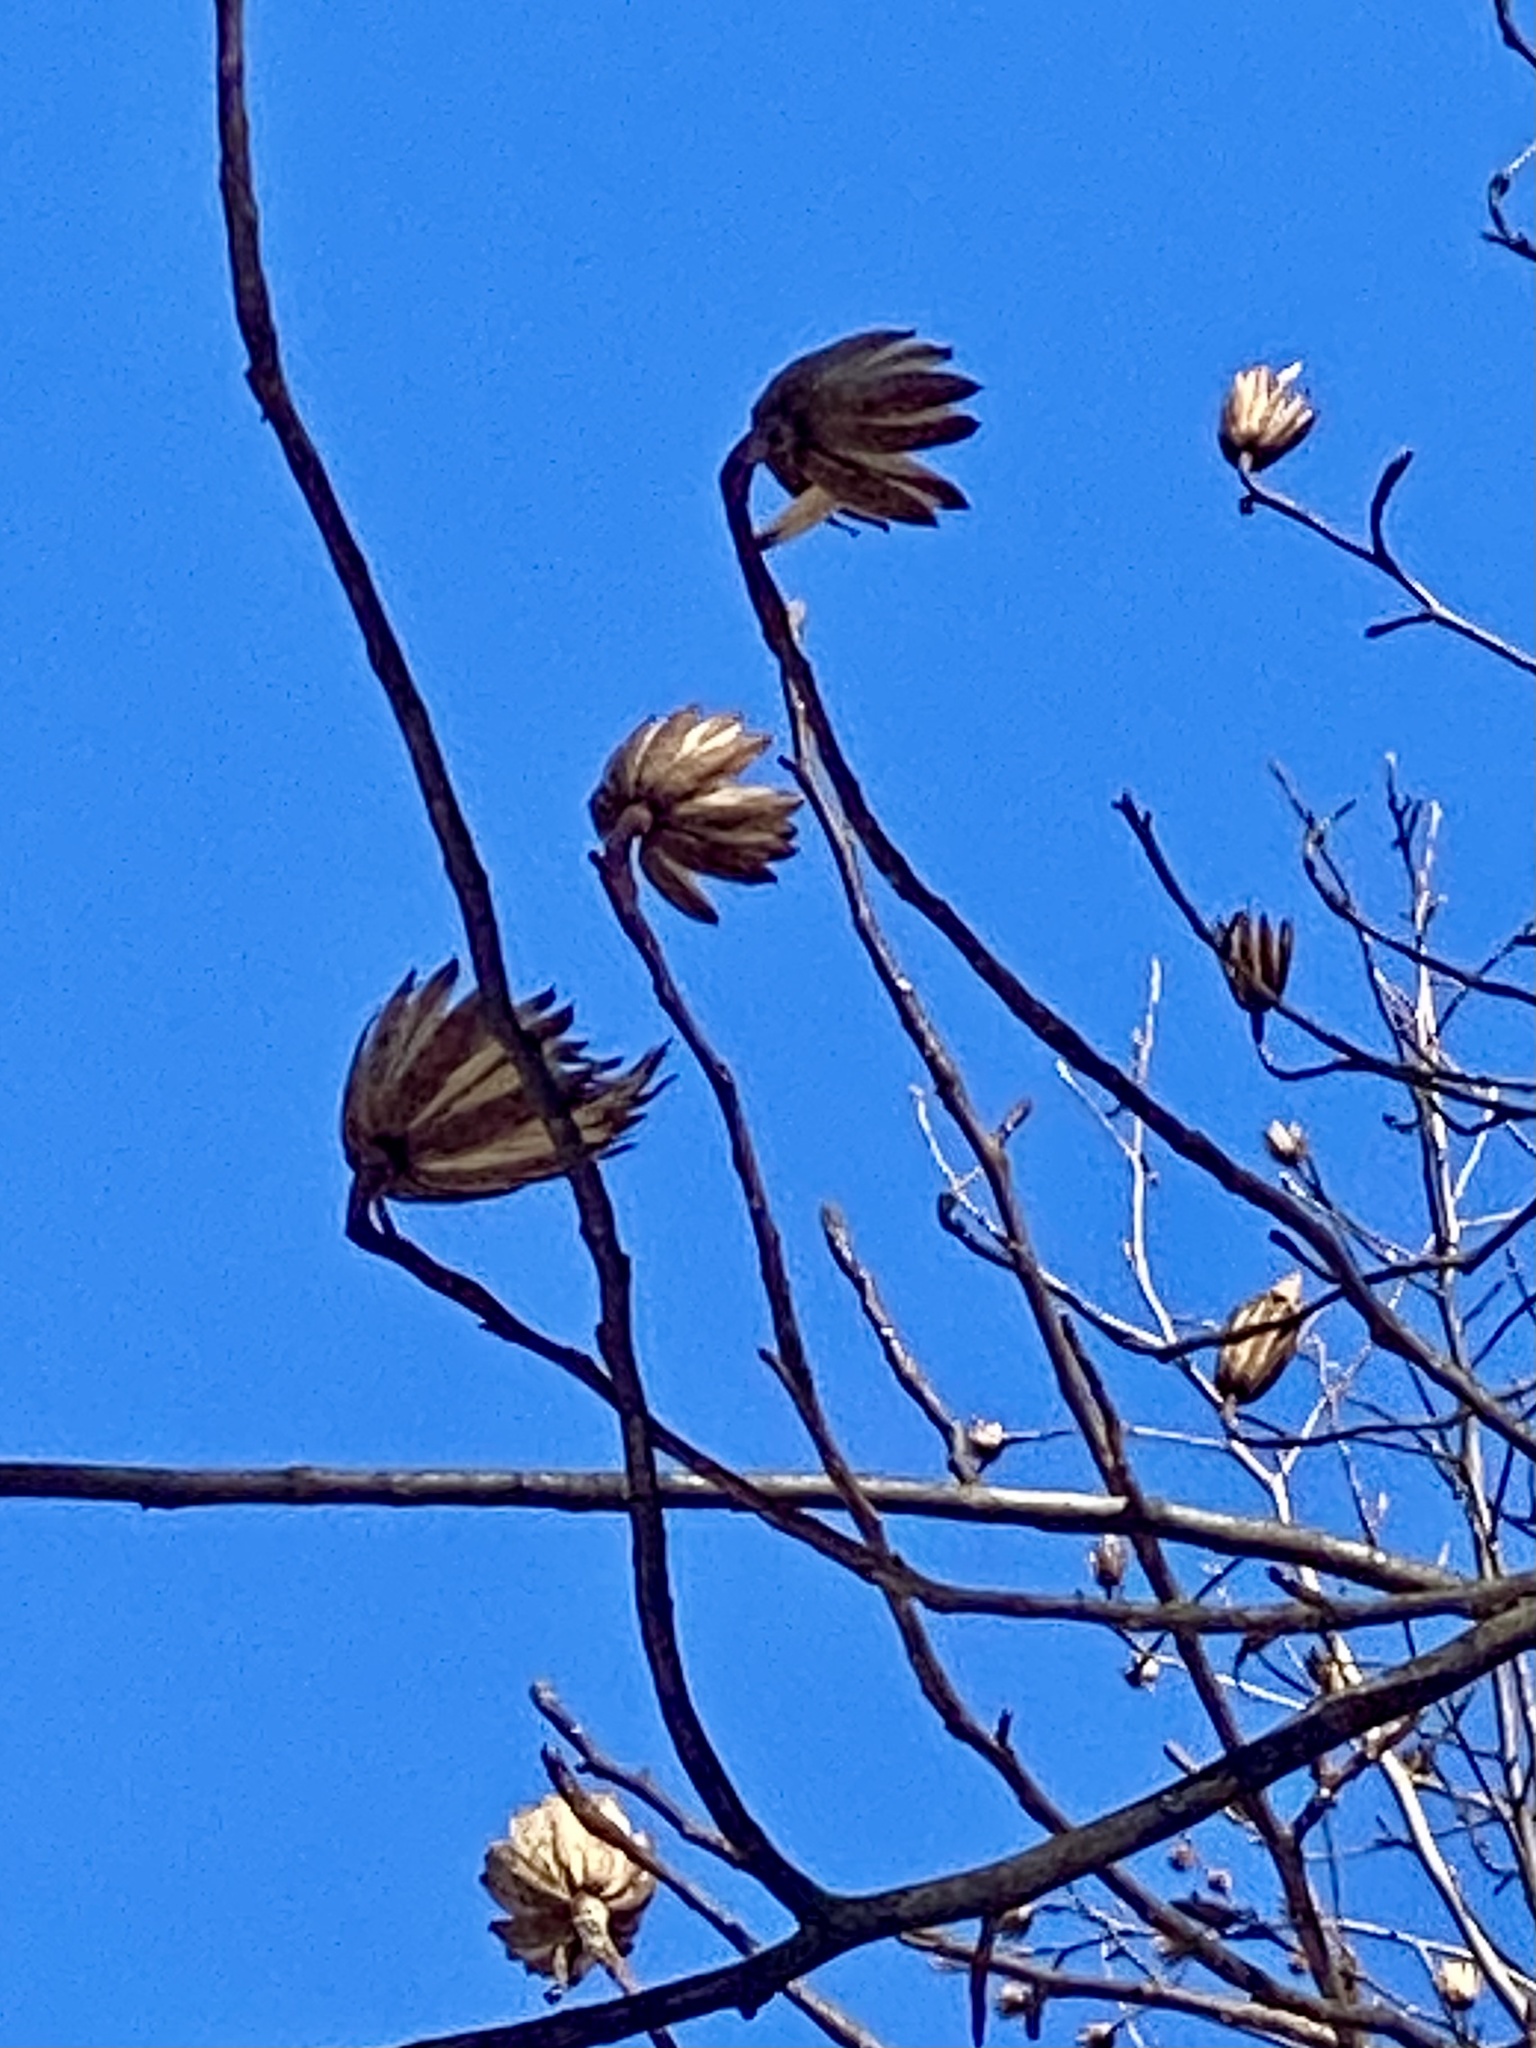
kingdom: Plantae
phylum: Tracheophyta
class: Magnoliopsida
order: Magnoliales
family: Magnoliaceae
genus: Liriodendron
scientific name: Liriodendron tulipifera
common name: Tulip tree
